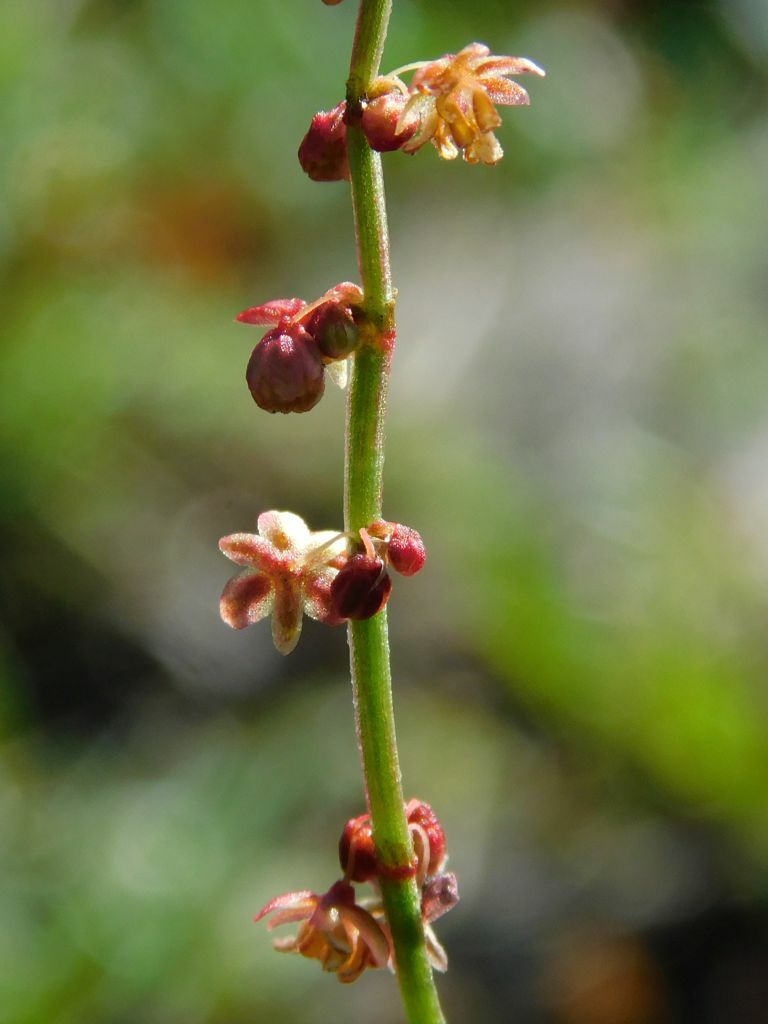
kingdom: Plantae
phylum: Tracheophyta
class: Magnoliopsida
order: Caryophyllales
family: Polygonaceae
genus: Rumex
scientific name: Rumex acetosella
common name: Common sheep sorrel
